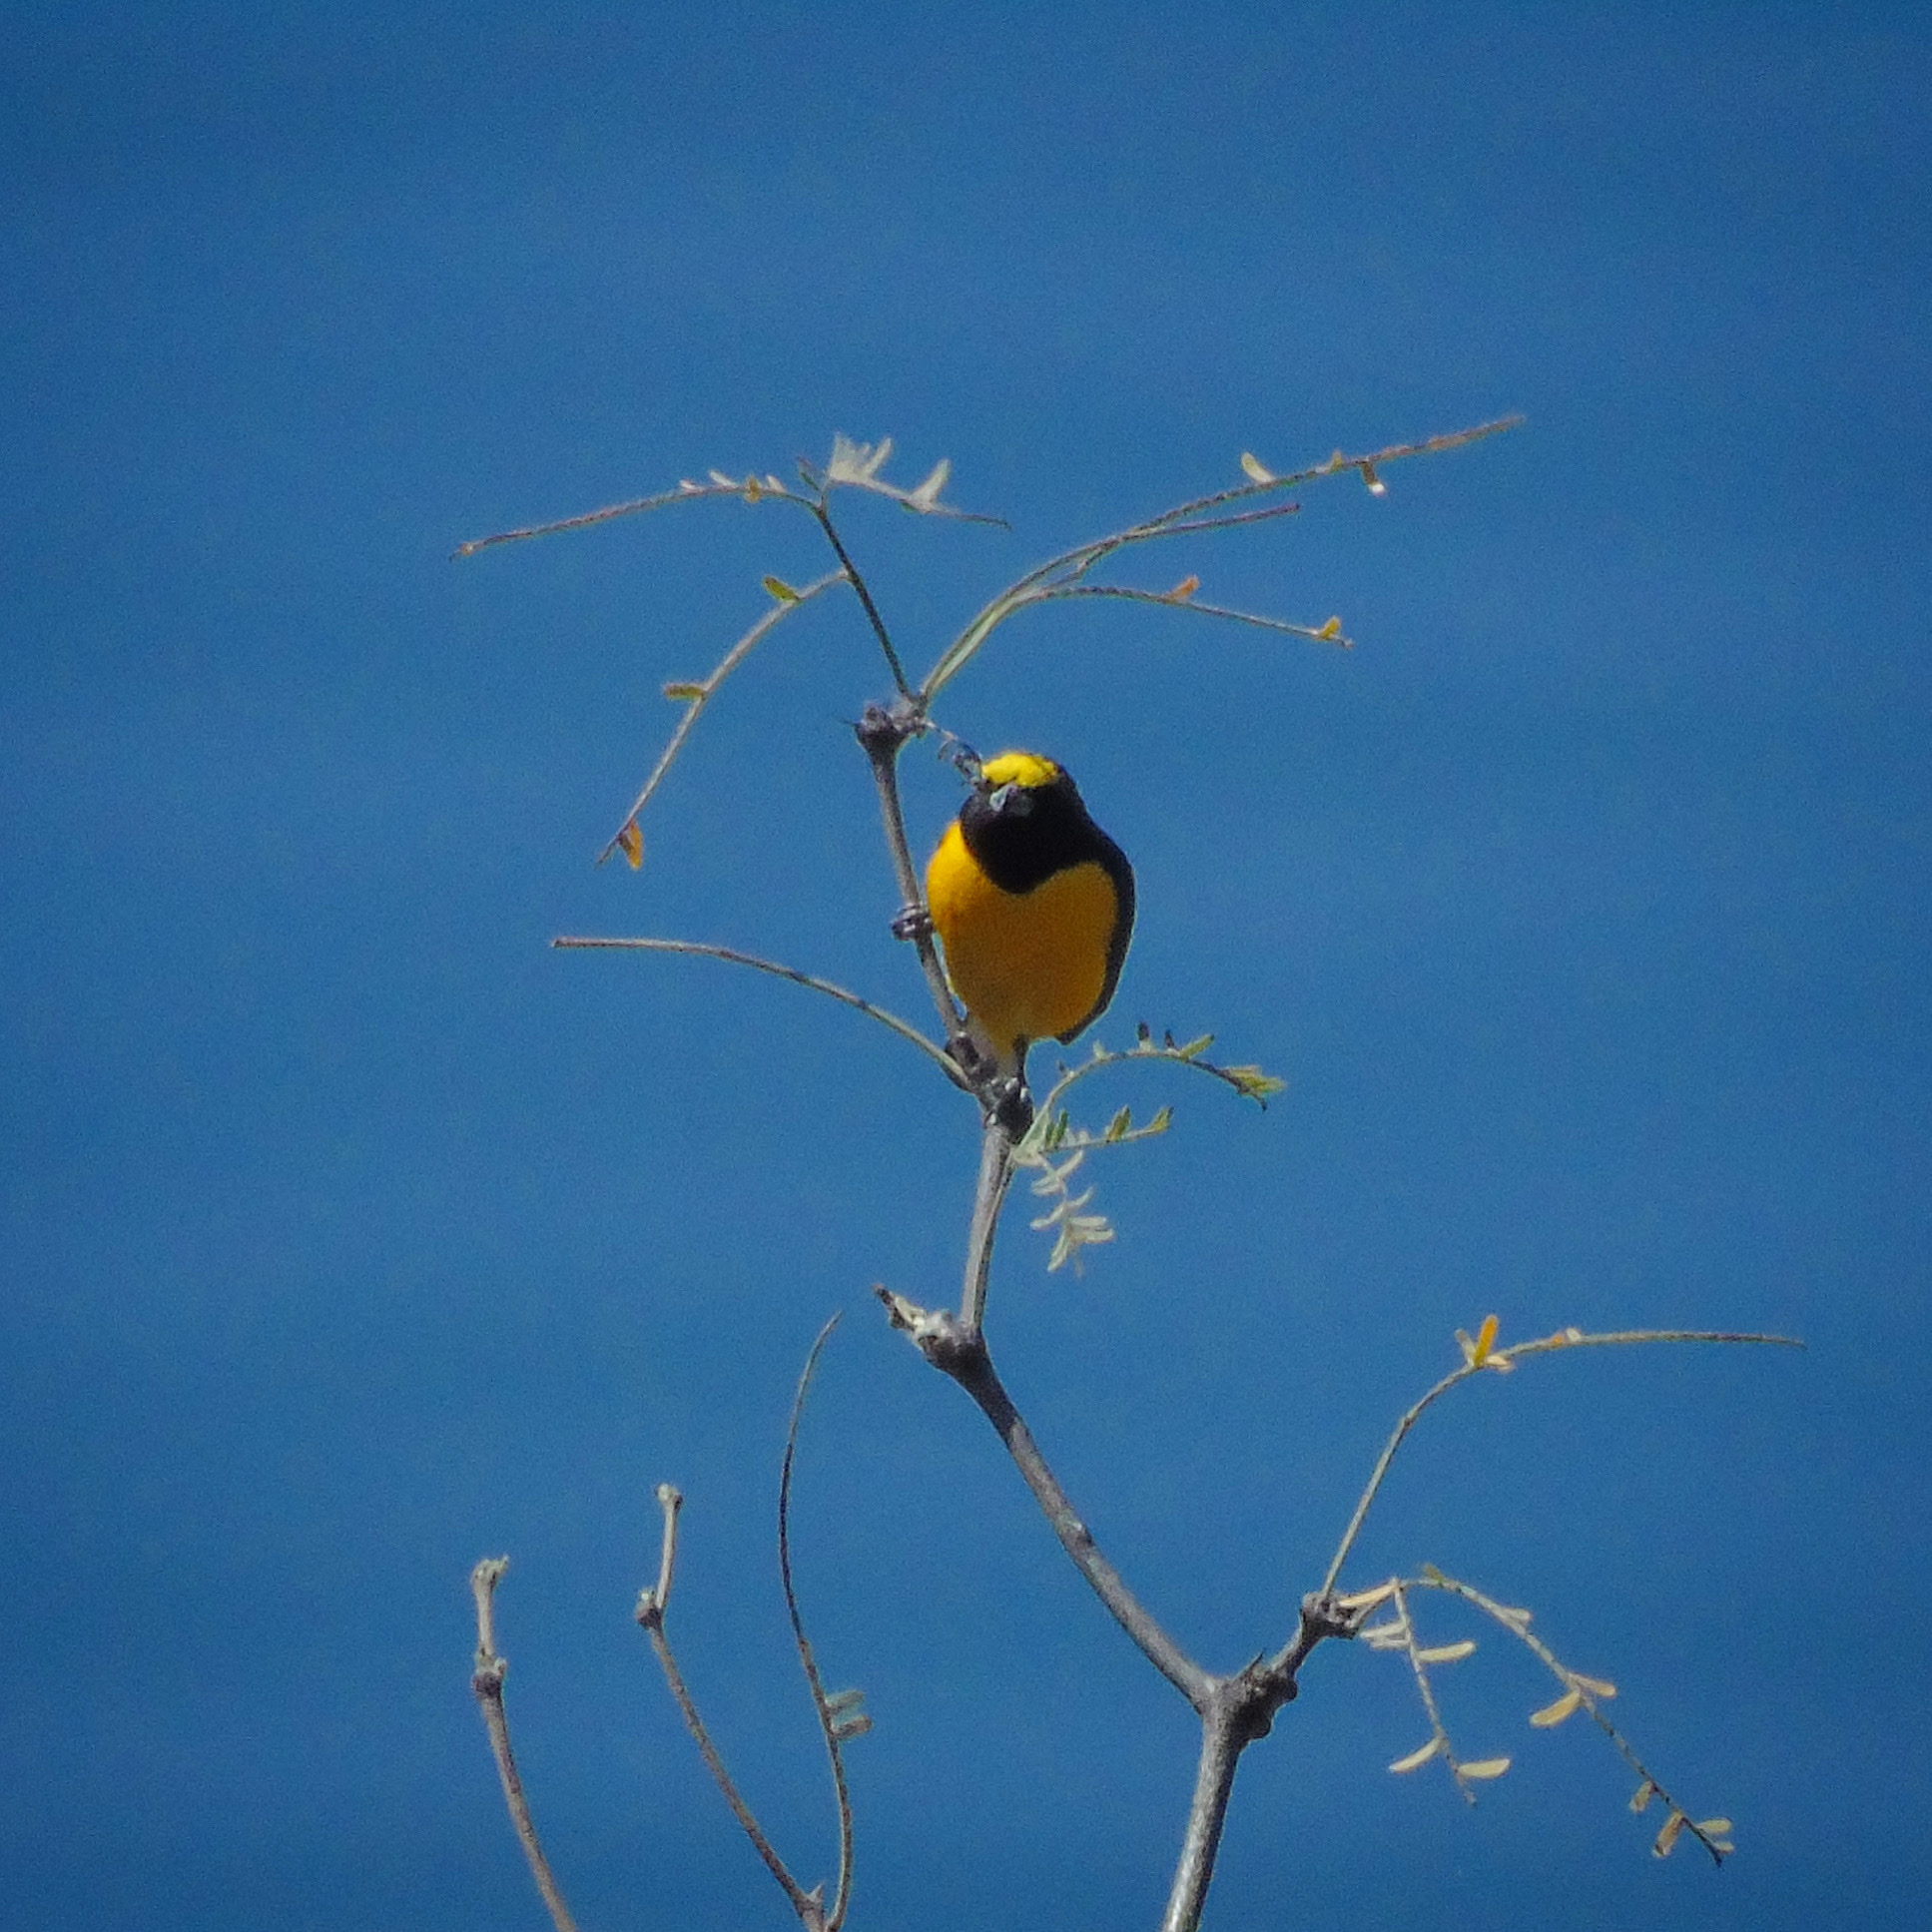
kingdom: Animalia
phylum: Chordata
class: Aves
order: Passeriformes
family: Fringillidae
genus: Euphonia
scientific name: Euphonia chlorotica
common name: Purple-throated euphonia
